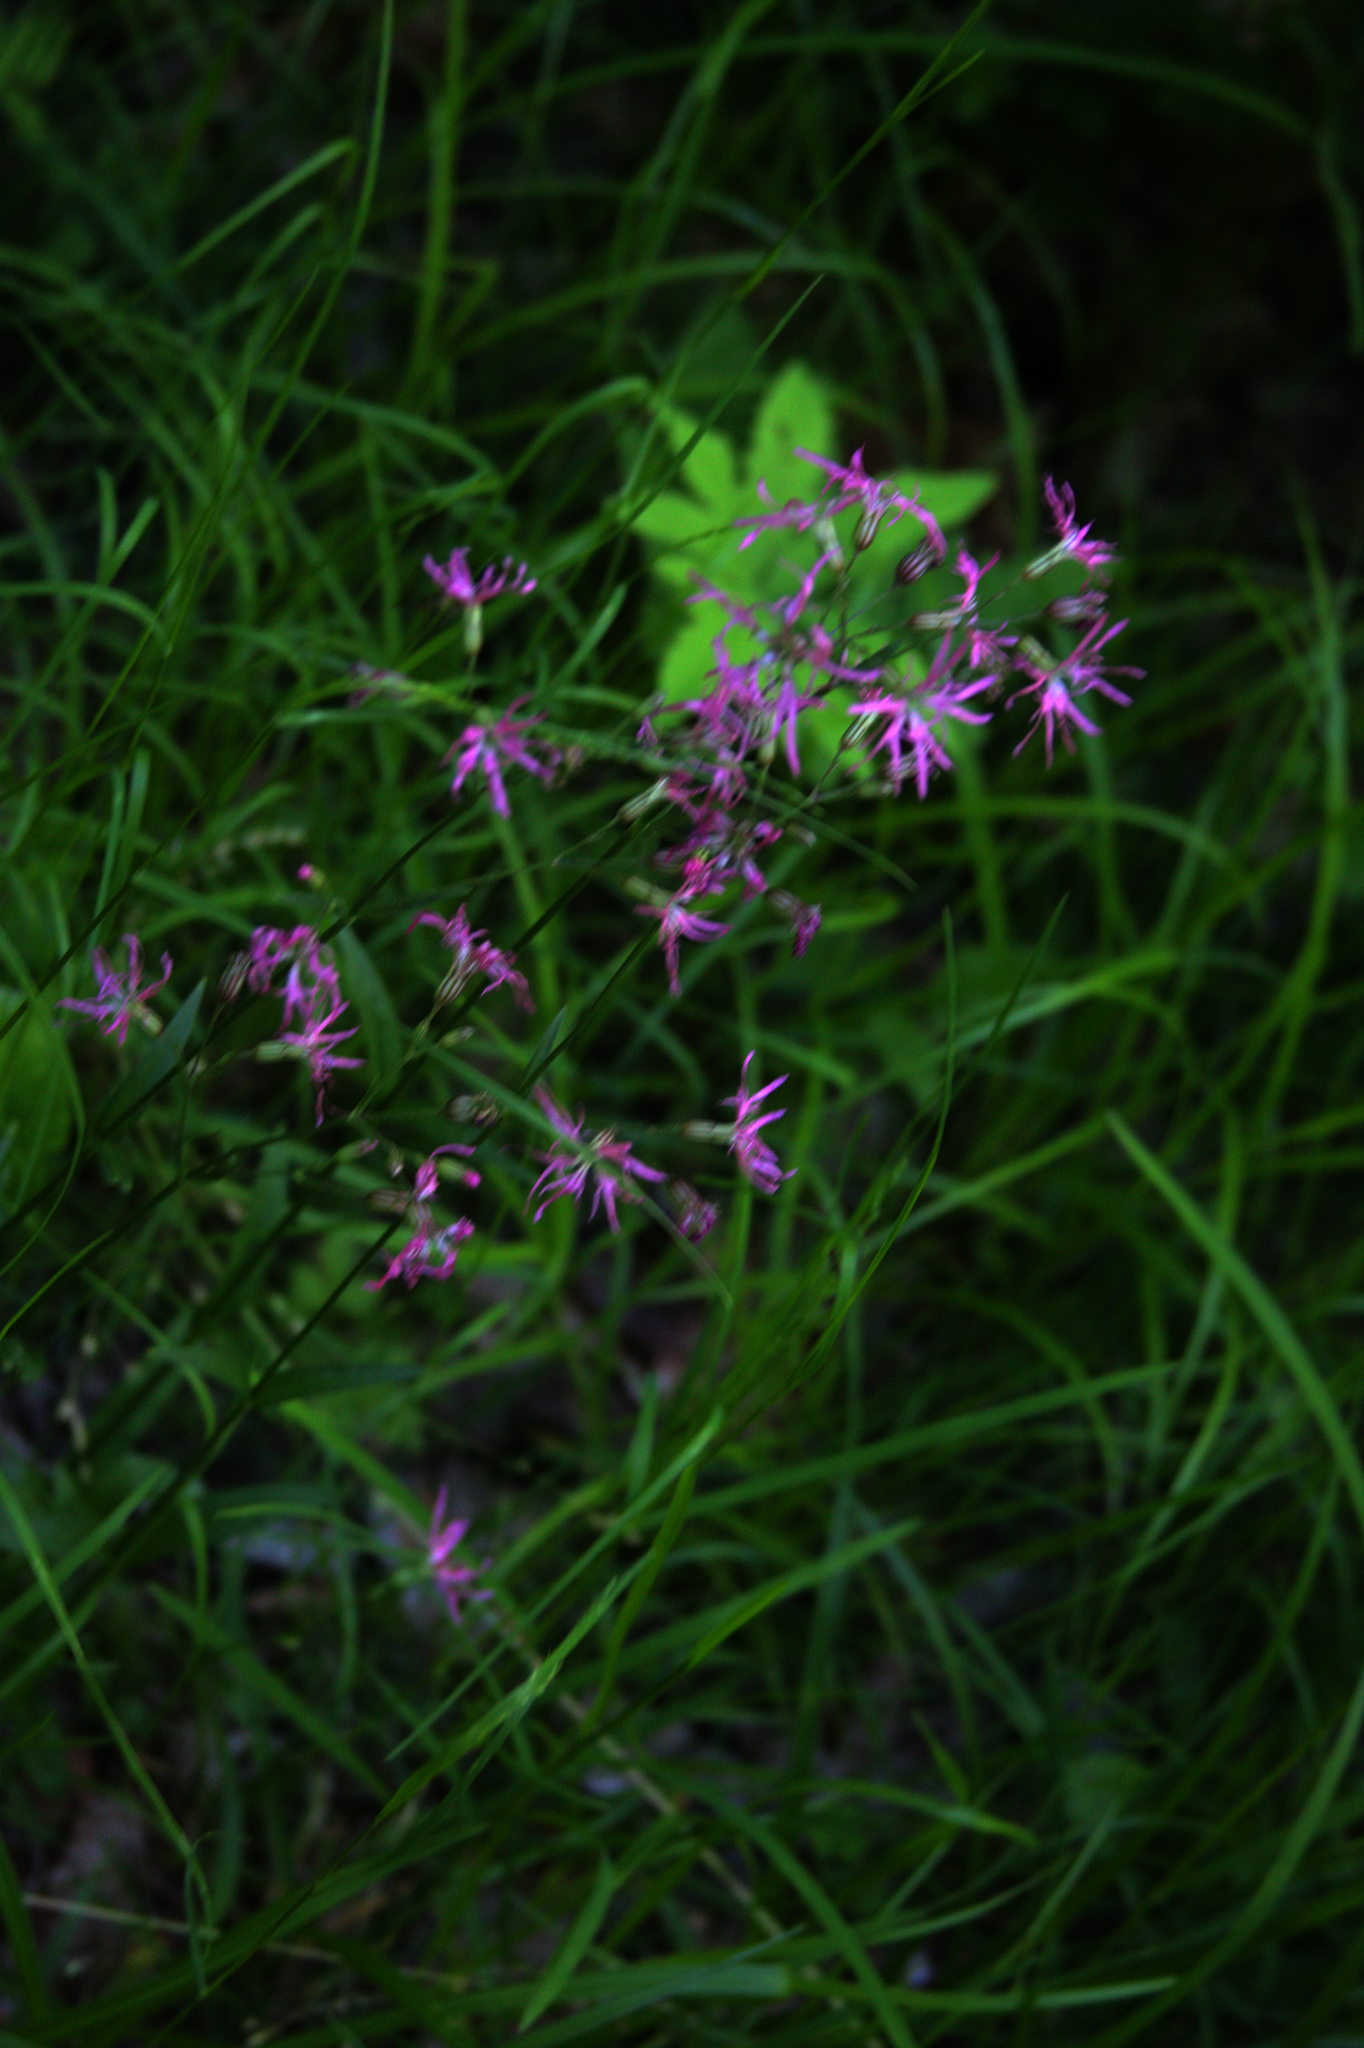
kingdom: Plantae
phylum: Tracheophyta
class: Magnoliopsida
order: Caryophyllales
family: Caryophyllaceae
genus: Silene
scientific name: Silene flos-cuculi
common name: Ragged-robin
